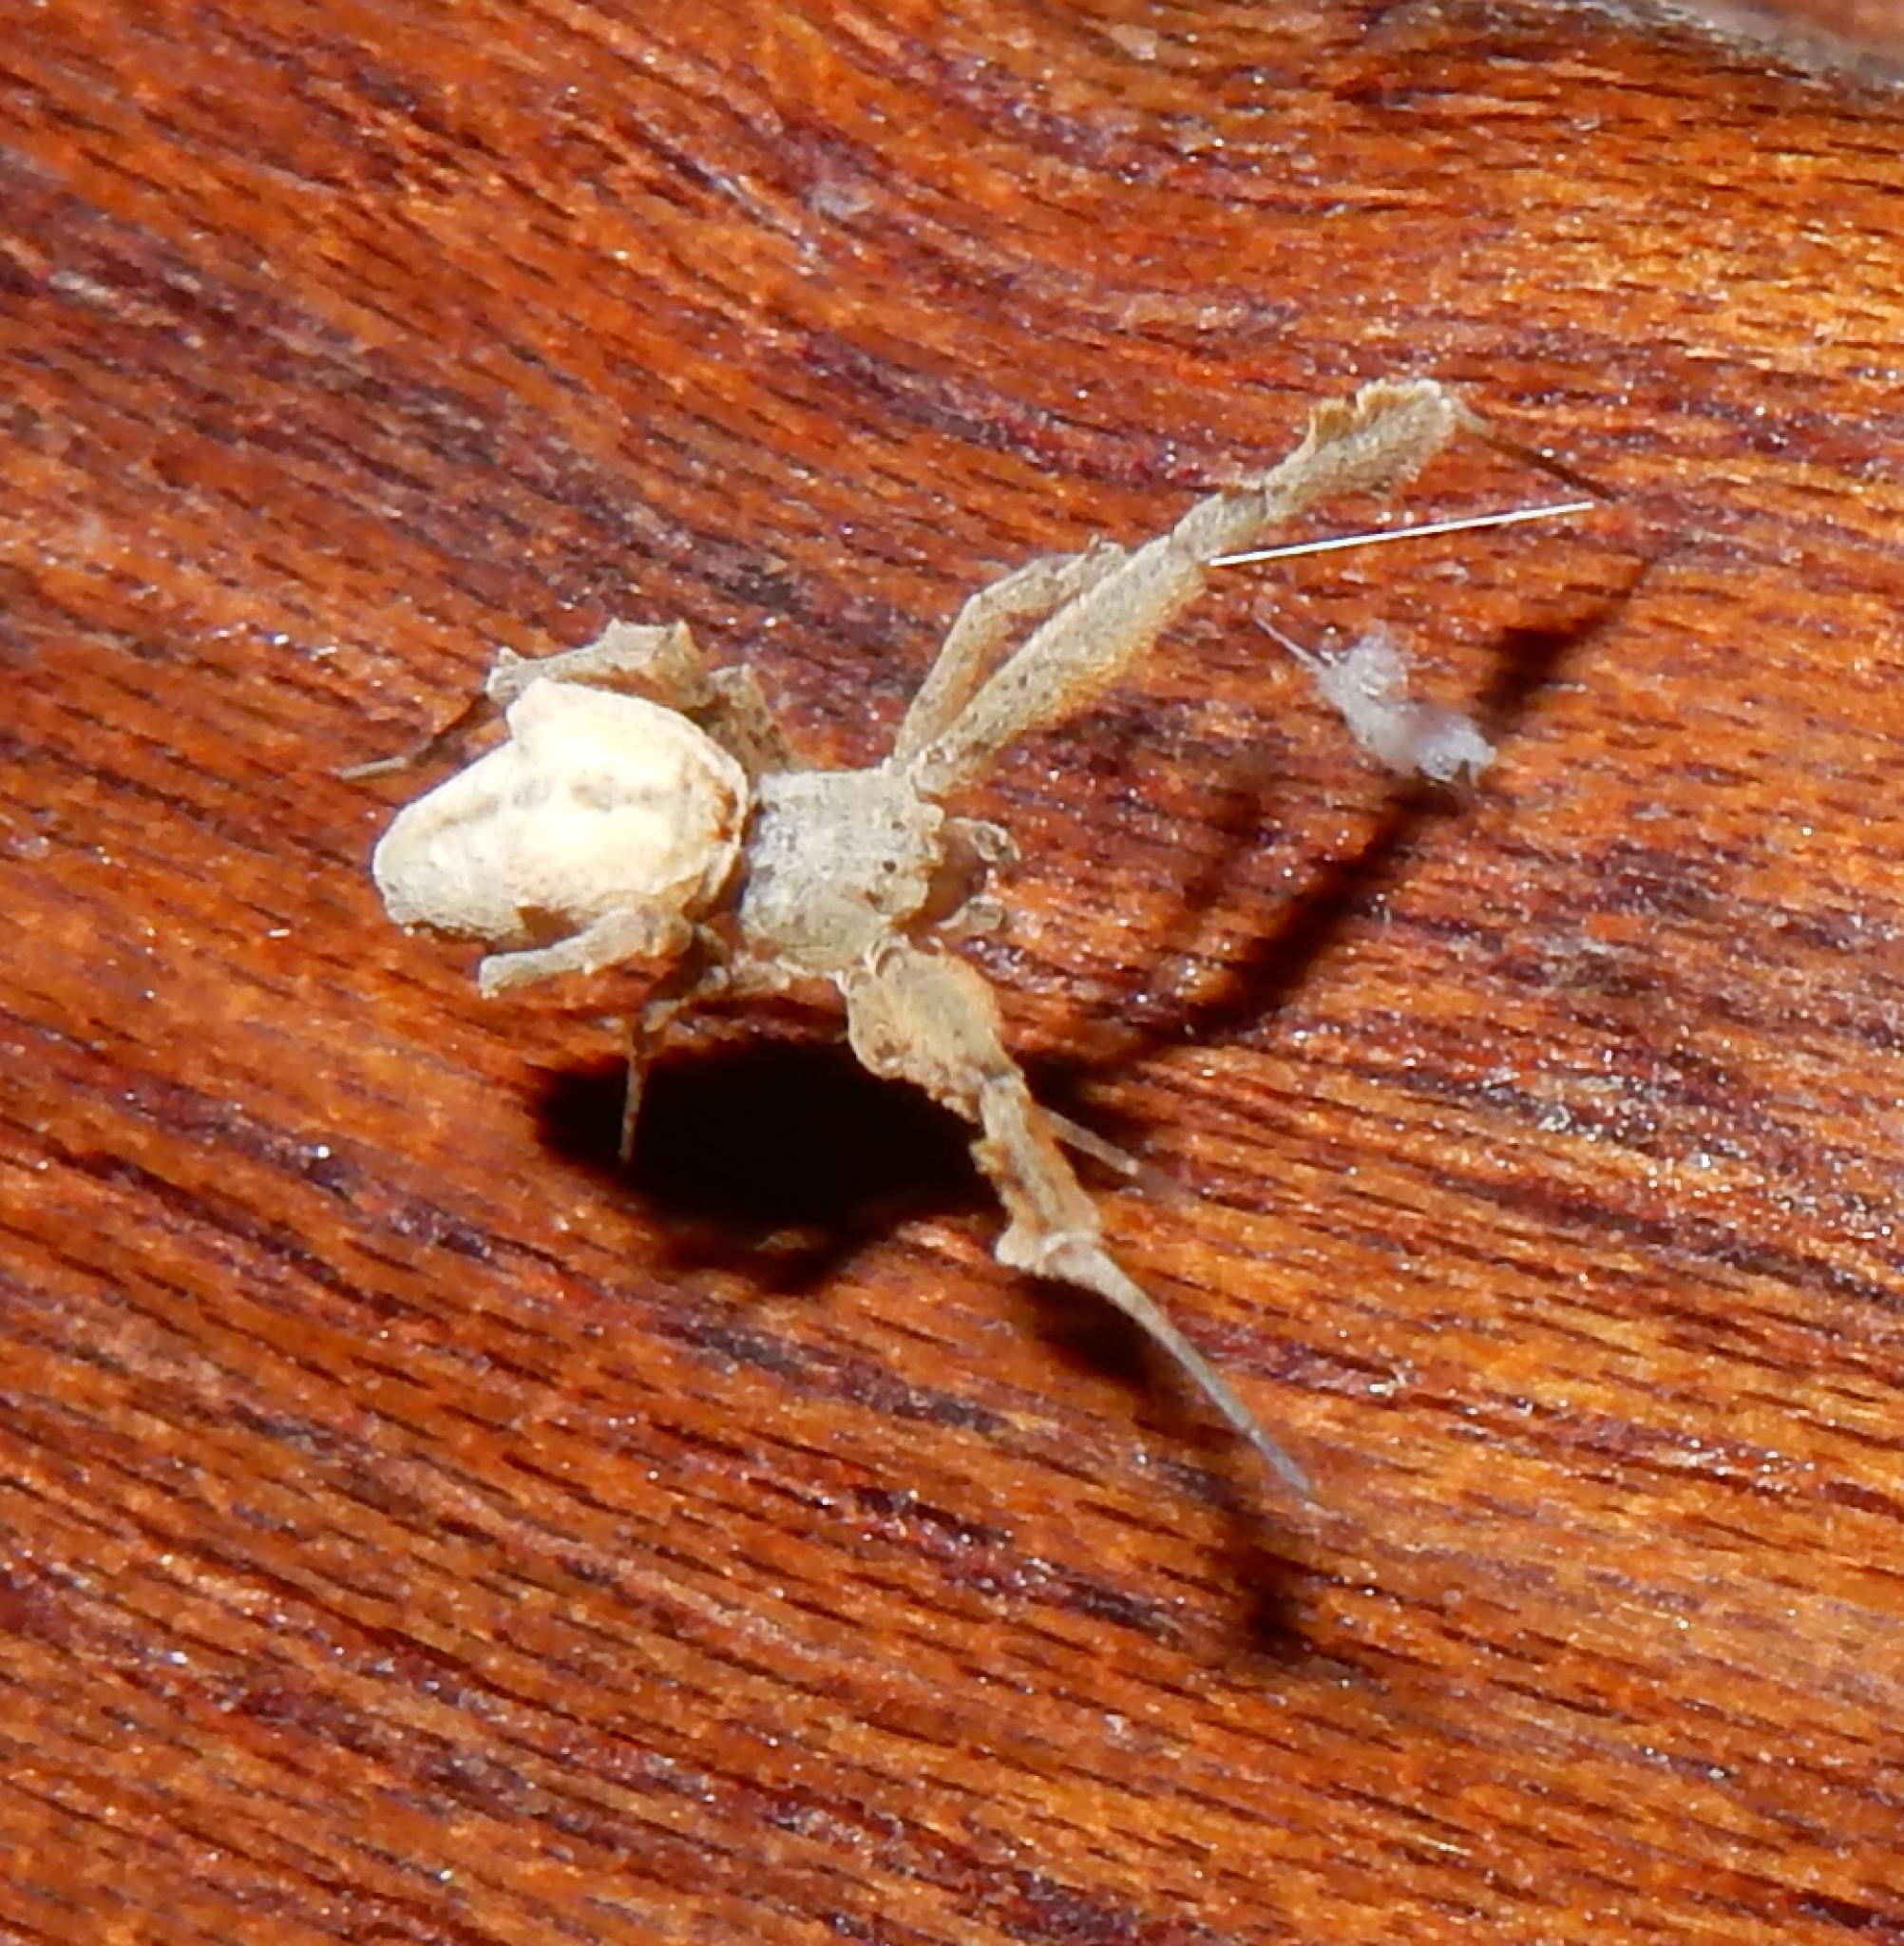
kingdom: Animalia
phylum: Arthropoda
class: Arachnida
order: Araneae
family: Uloboridae
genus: Uloborus
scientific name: Uloborus plumipes
